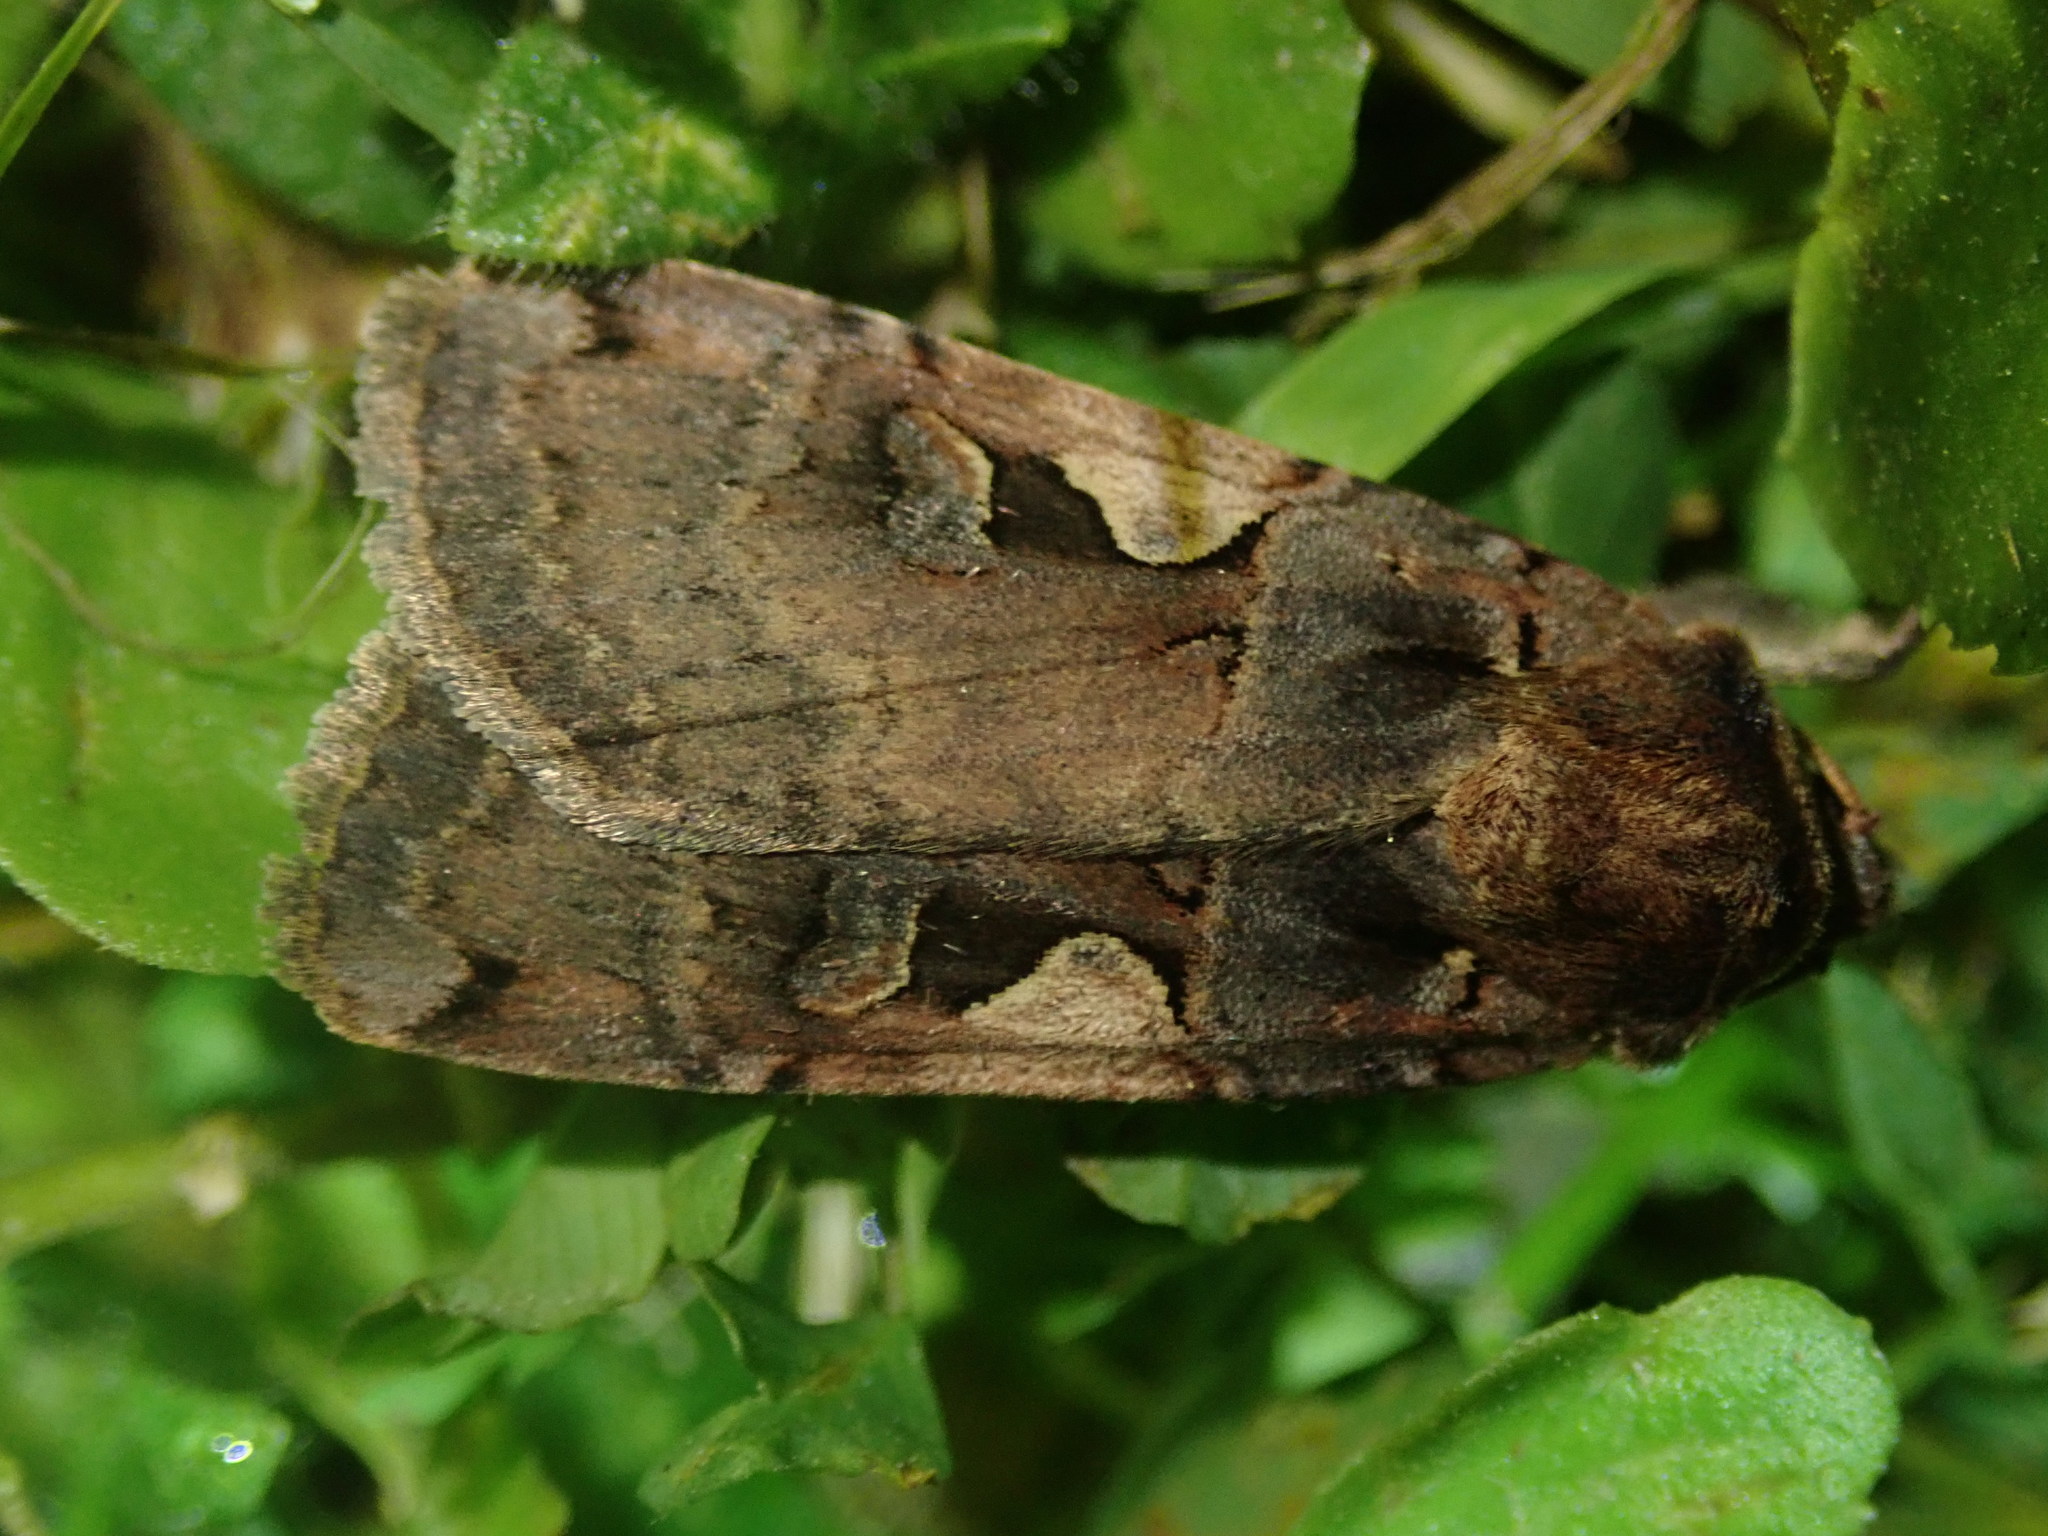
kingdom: Animalia
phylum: Arthropoda
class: Insecta
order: Lepidoptera
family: Noctuidae
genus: Xestia
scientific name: Xestia c-nigrum
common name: Setaceous hebrew character
